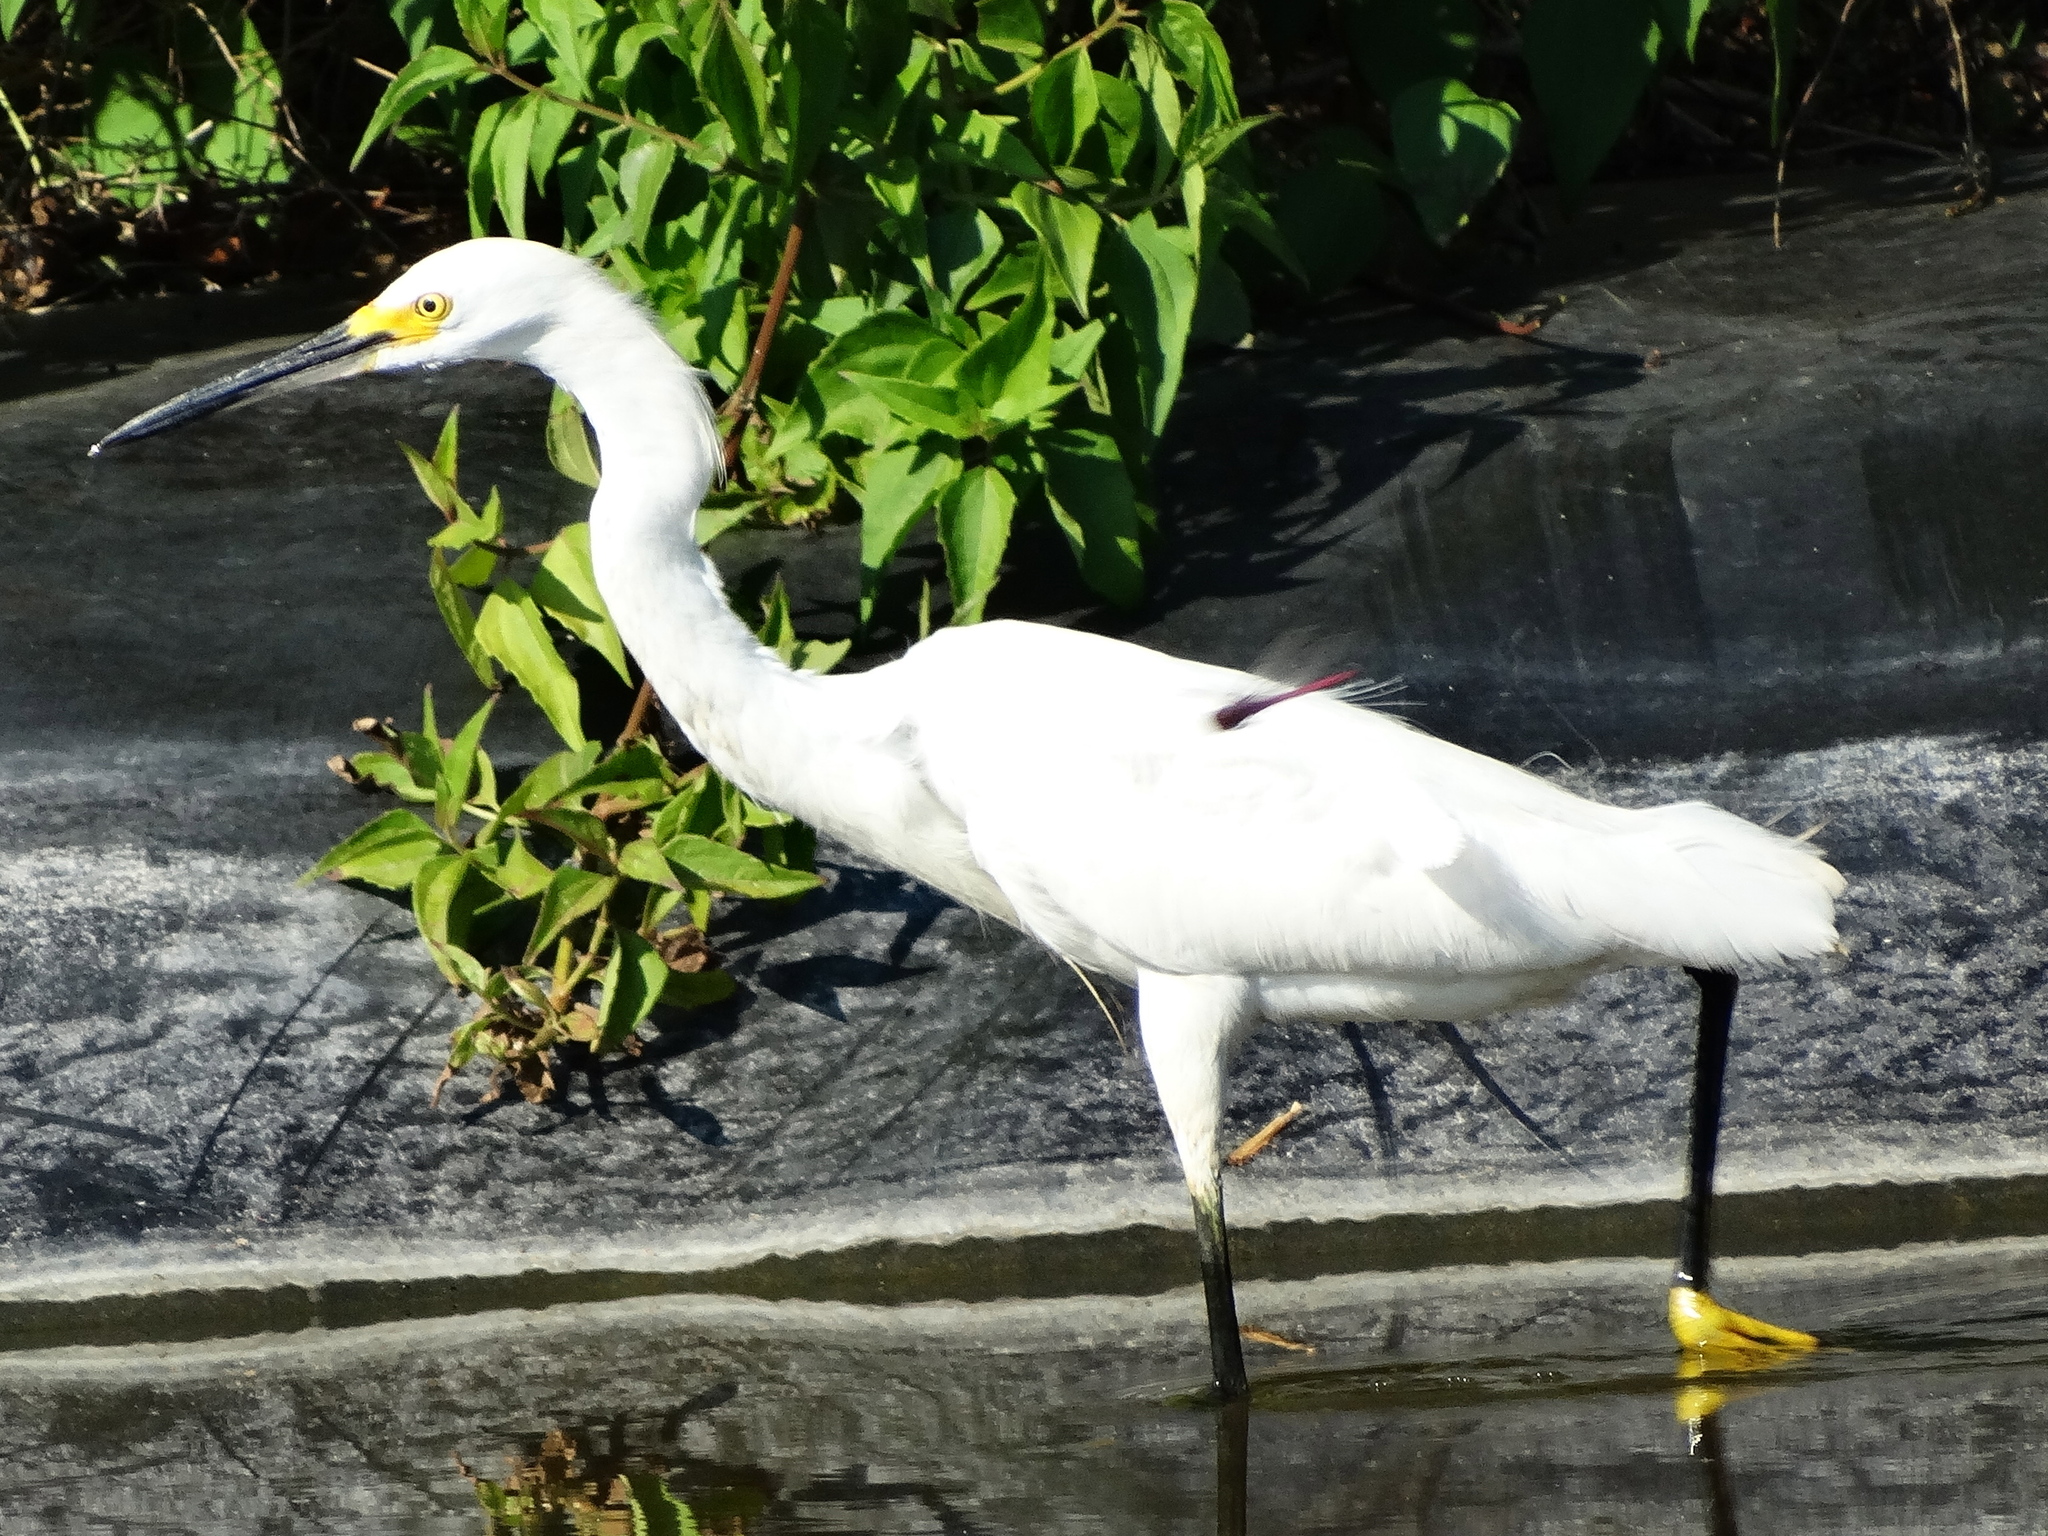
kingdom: Animalia
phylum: Chordata
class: Aves
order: Pelecaniformes
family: Ardeidae
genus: Egretta
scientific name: Egretta thula
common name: Snowy egret
